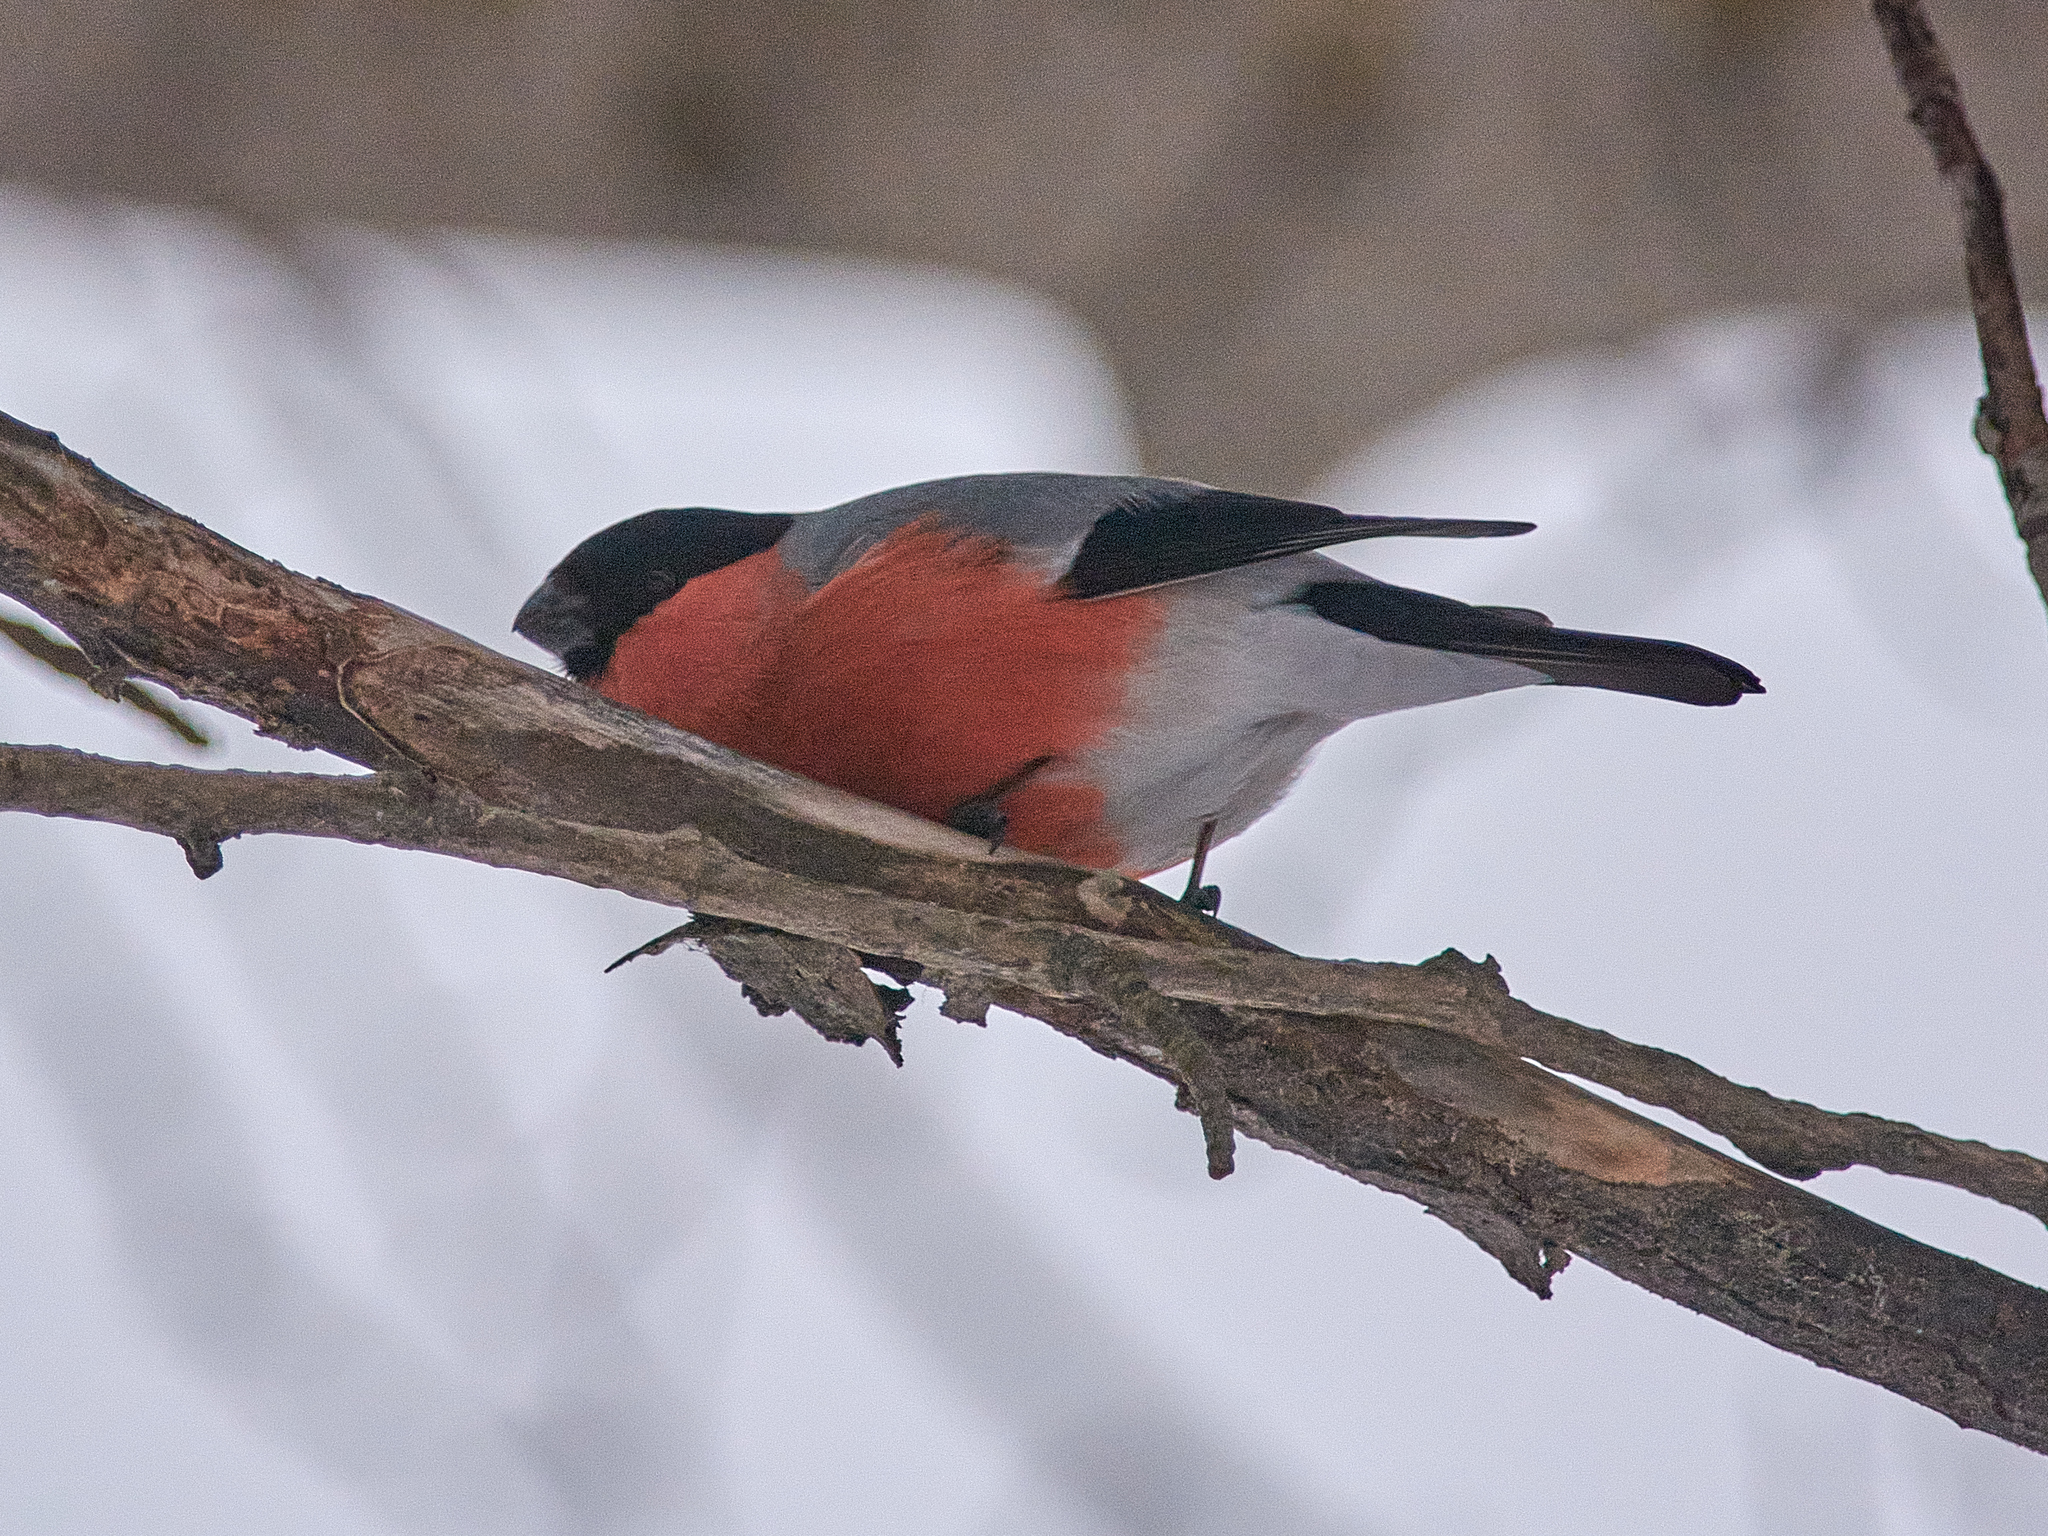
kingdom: Animalia
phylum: Chordata
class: Aves
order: Passeriformes
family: Fringillidae
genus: Pyrrhula
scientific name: Pyrrhula pyrrhula
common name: Eurasian bullfinch
